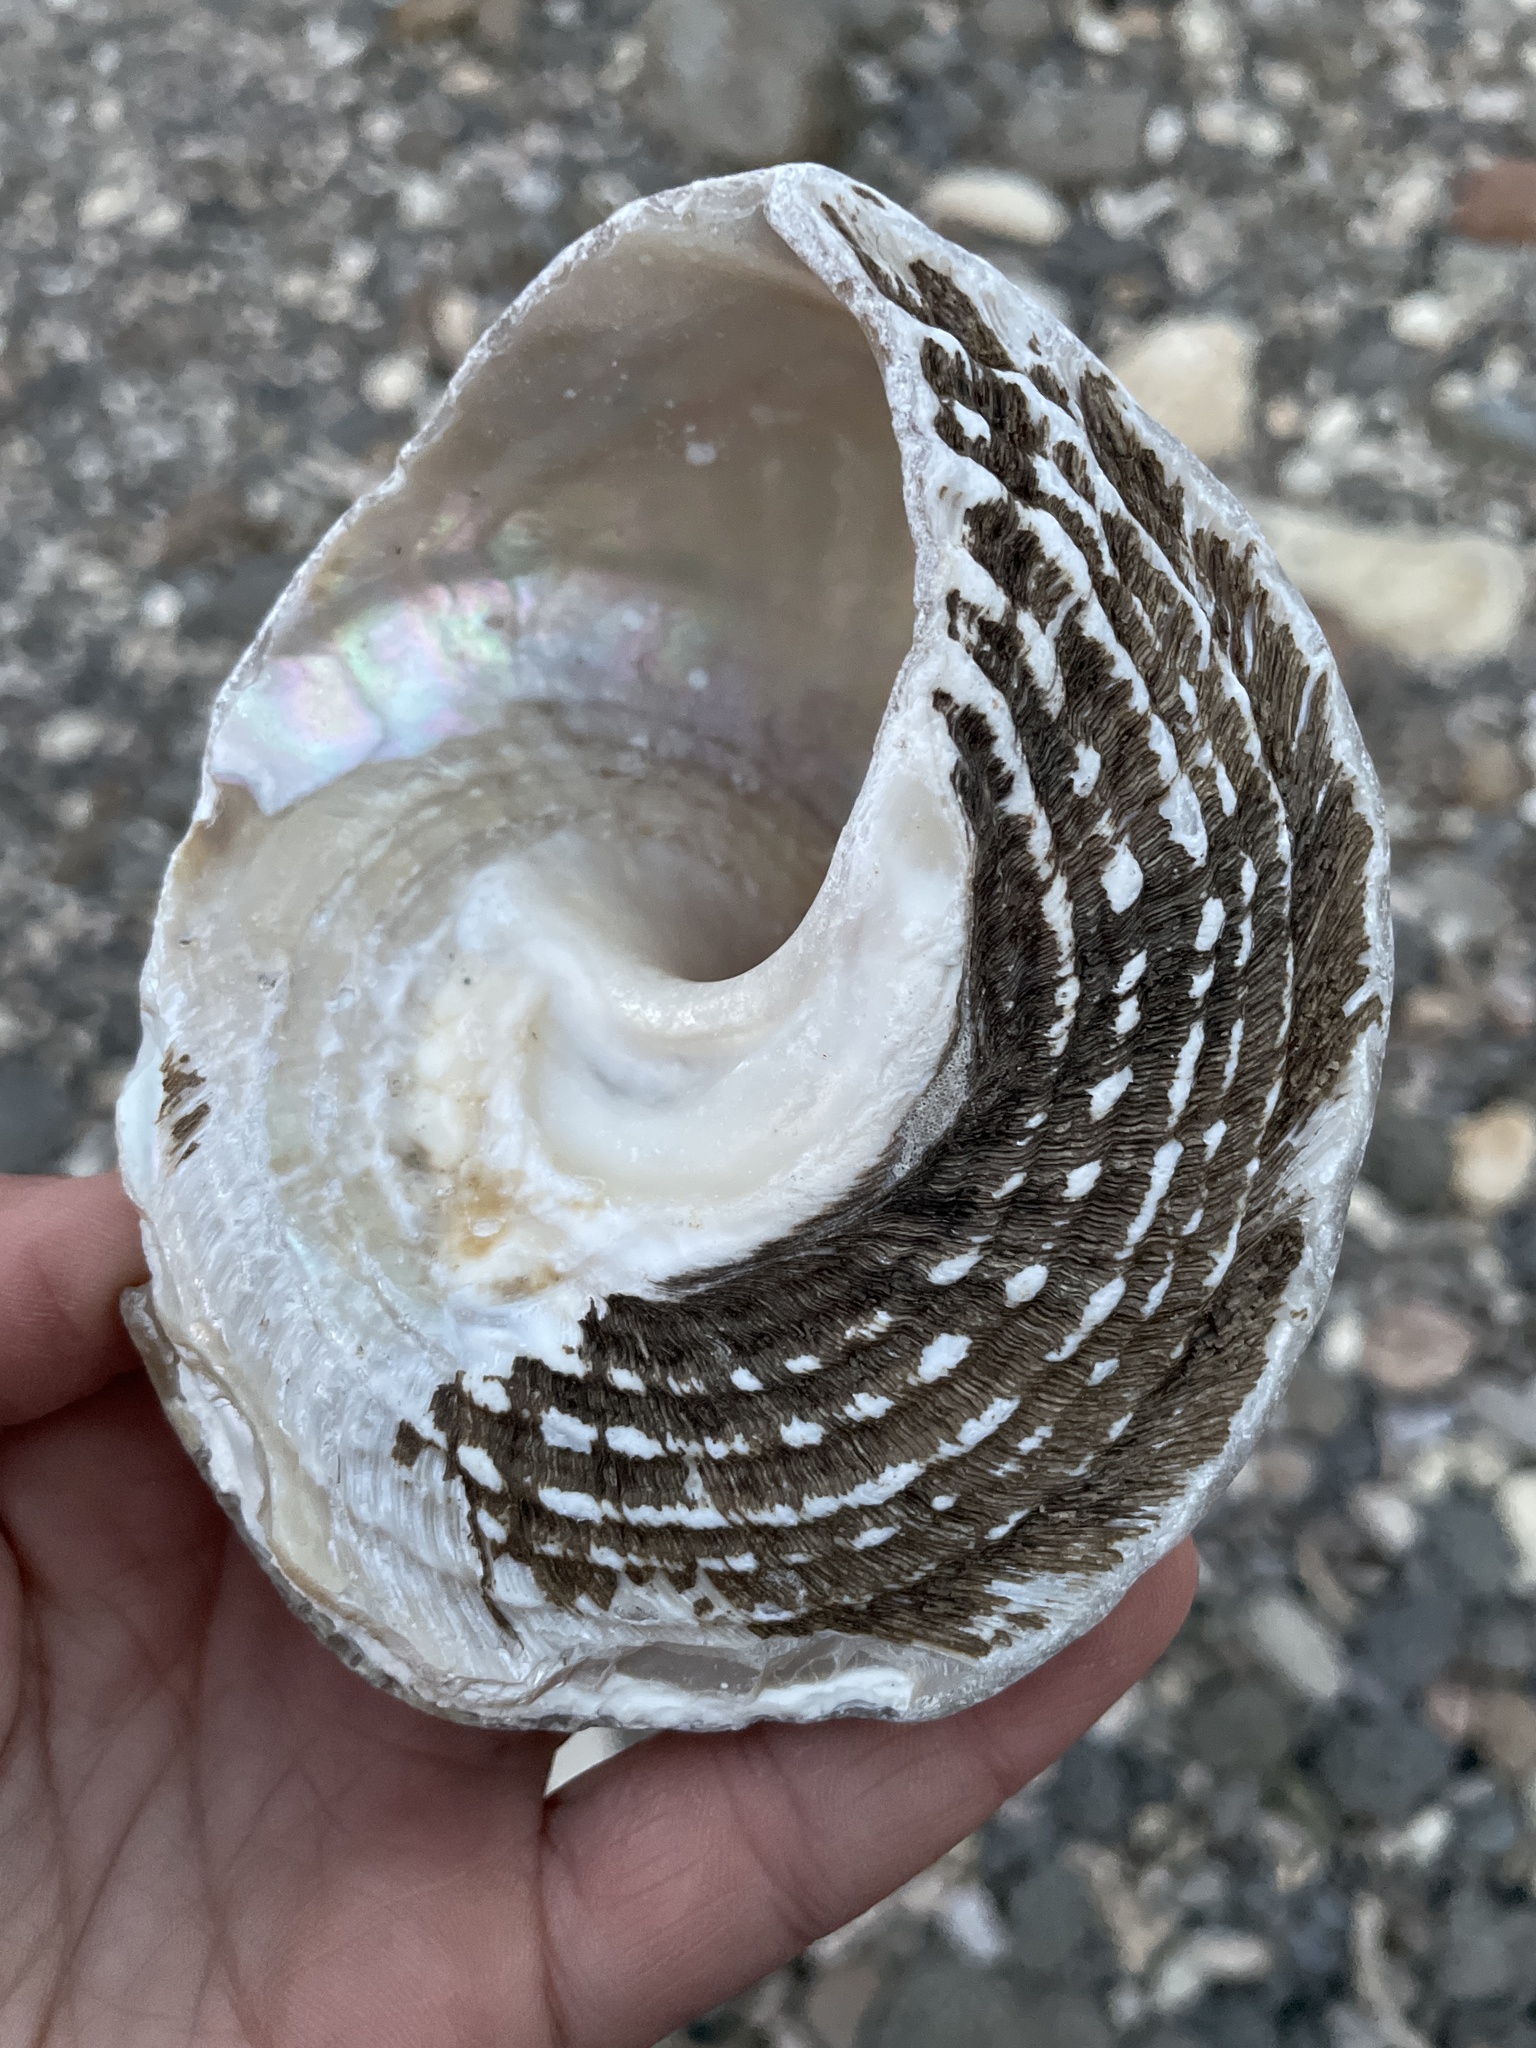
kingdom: Animalia
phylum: Mollusca
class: Gastropoda
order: Trochida
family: Turbinidae
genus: Megastraea
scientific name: Megastraea undosa
